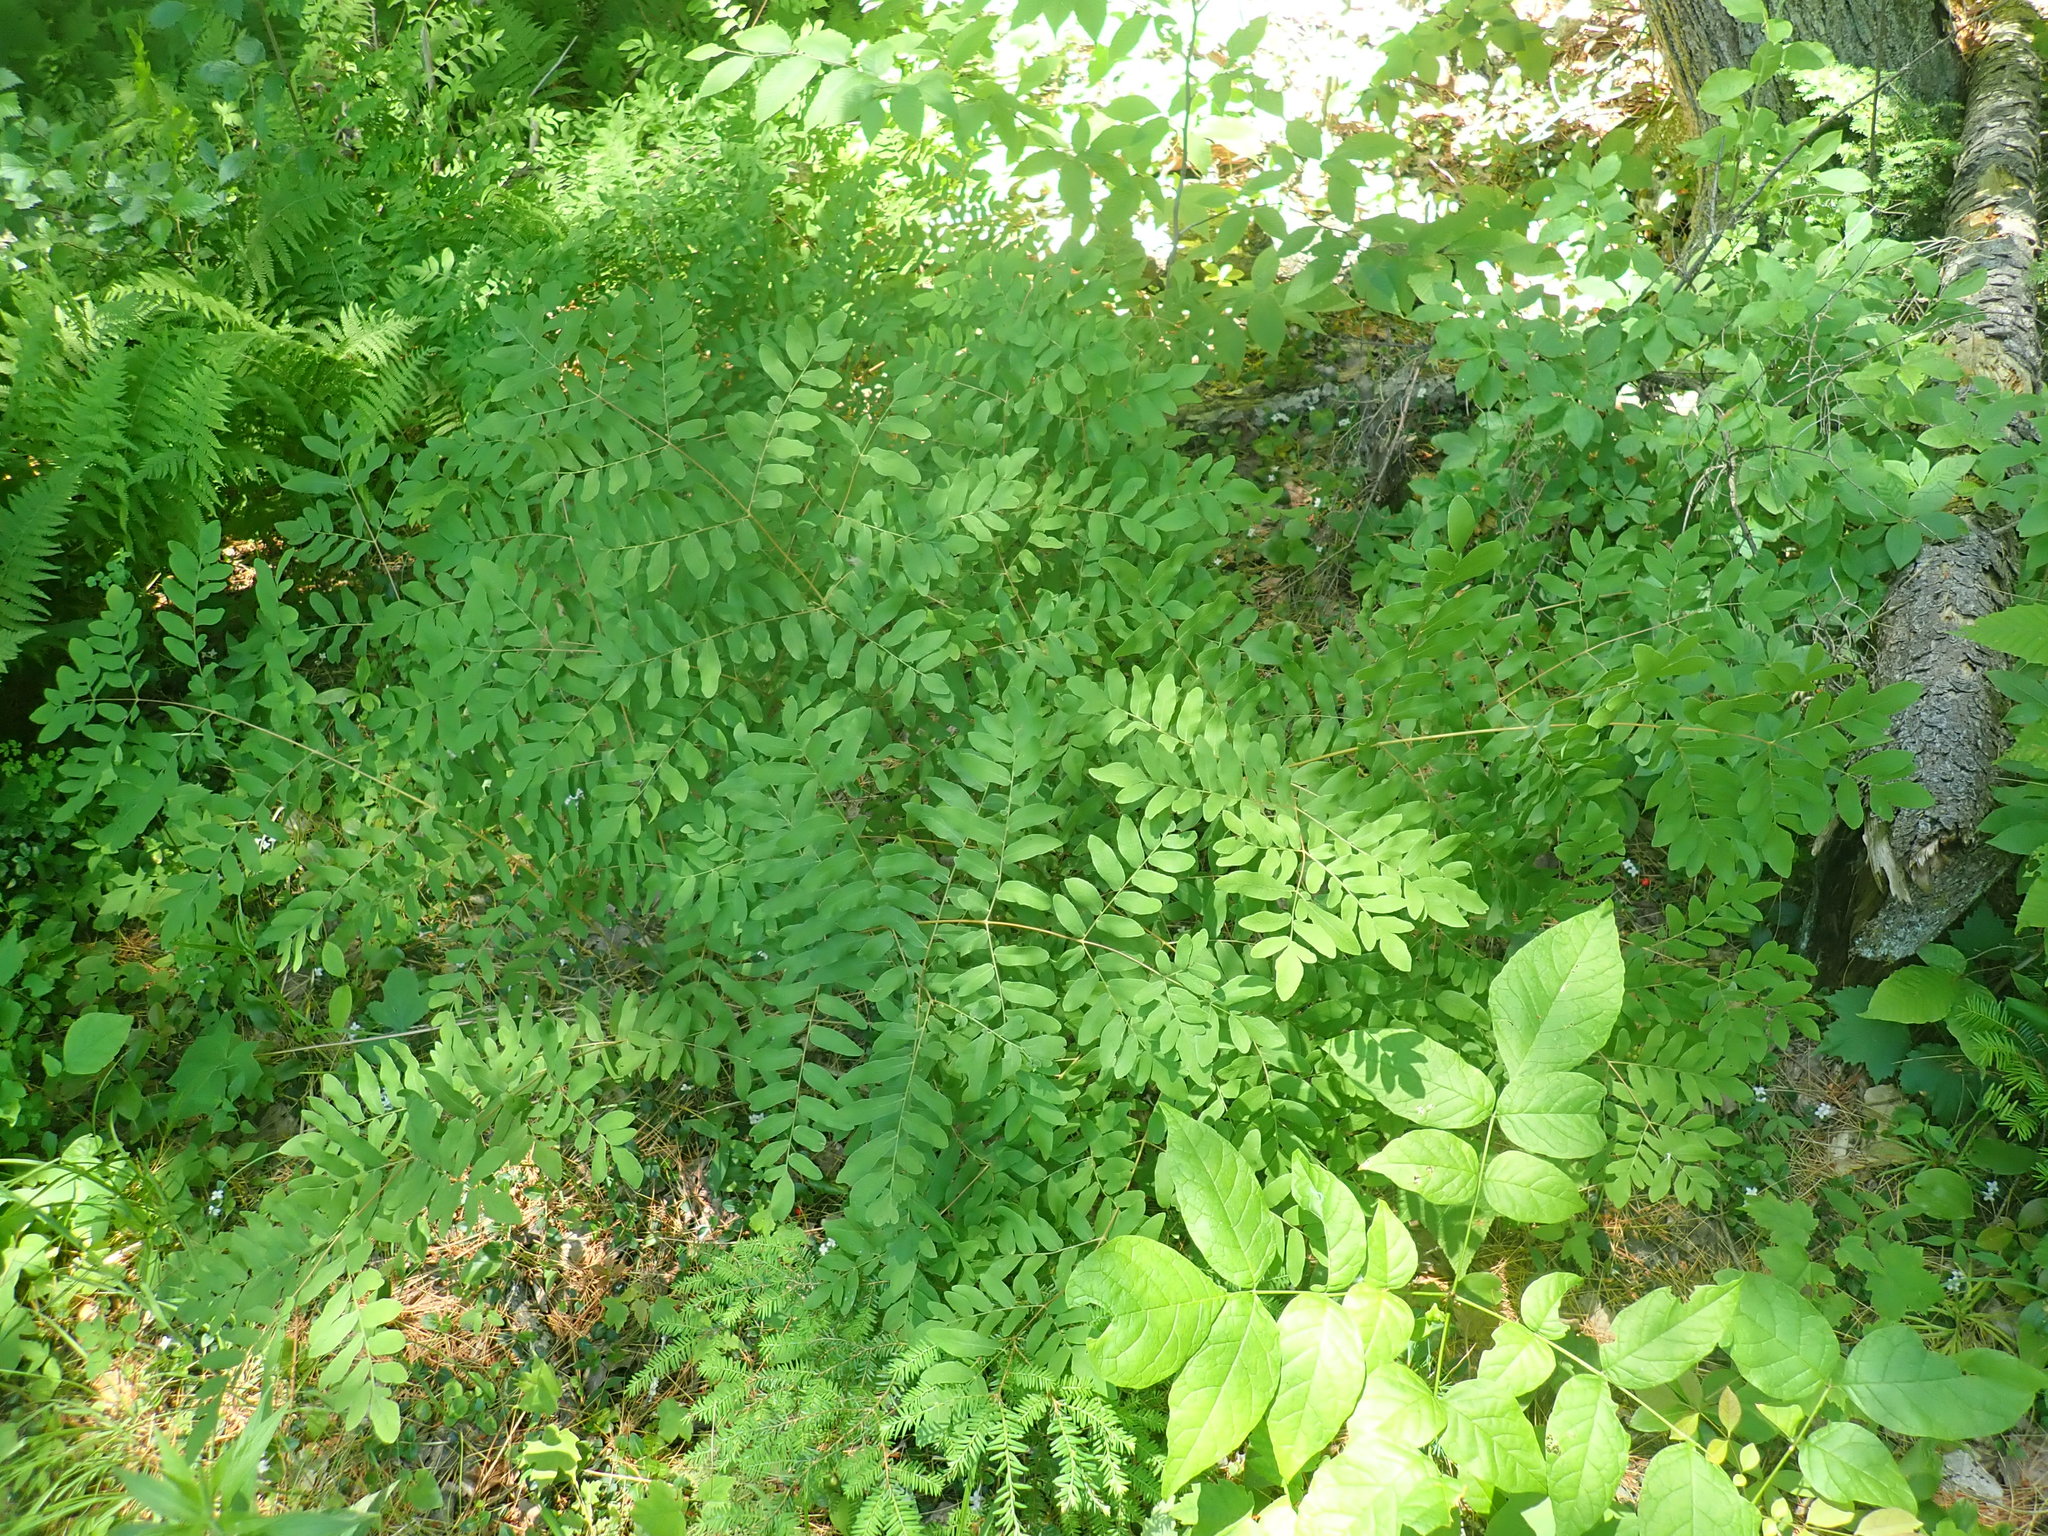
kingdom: Plantae
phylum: Tracheophyta
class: Polypodiopsida
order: Osmundales
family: Osmundaceae
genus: Osmunda
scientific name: Osmunda spectabilis
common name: American royal fern
